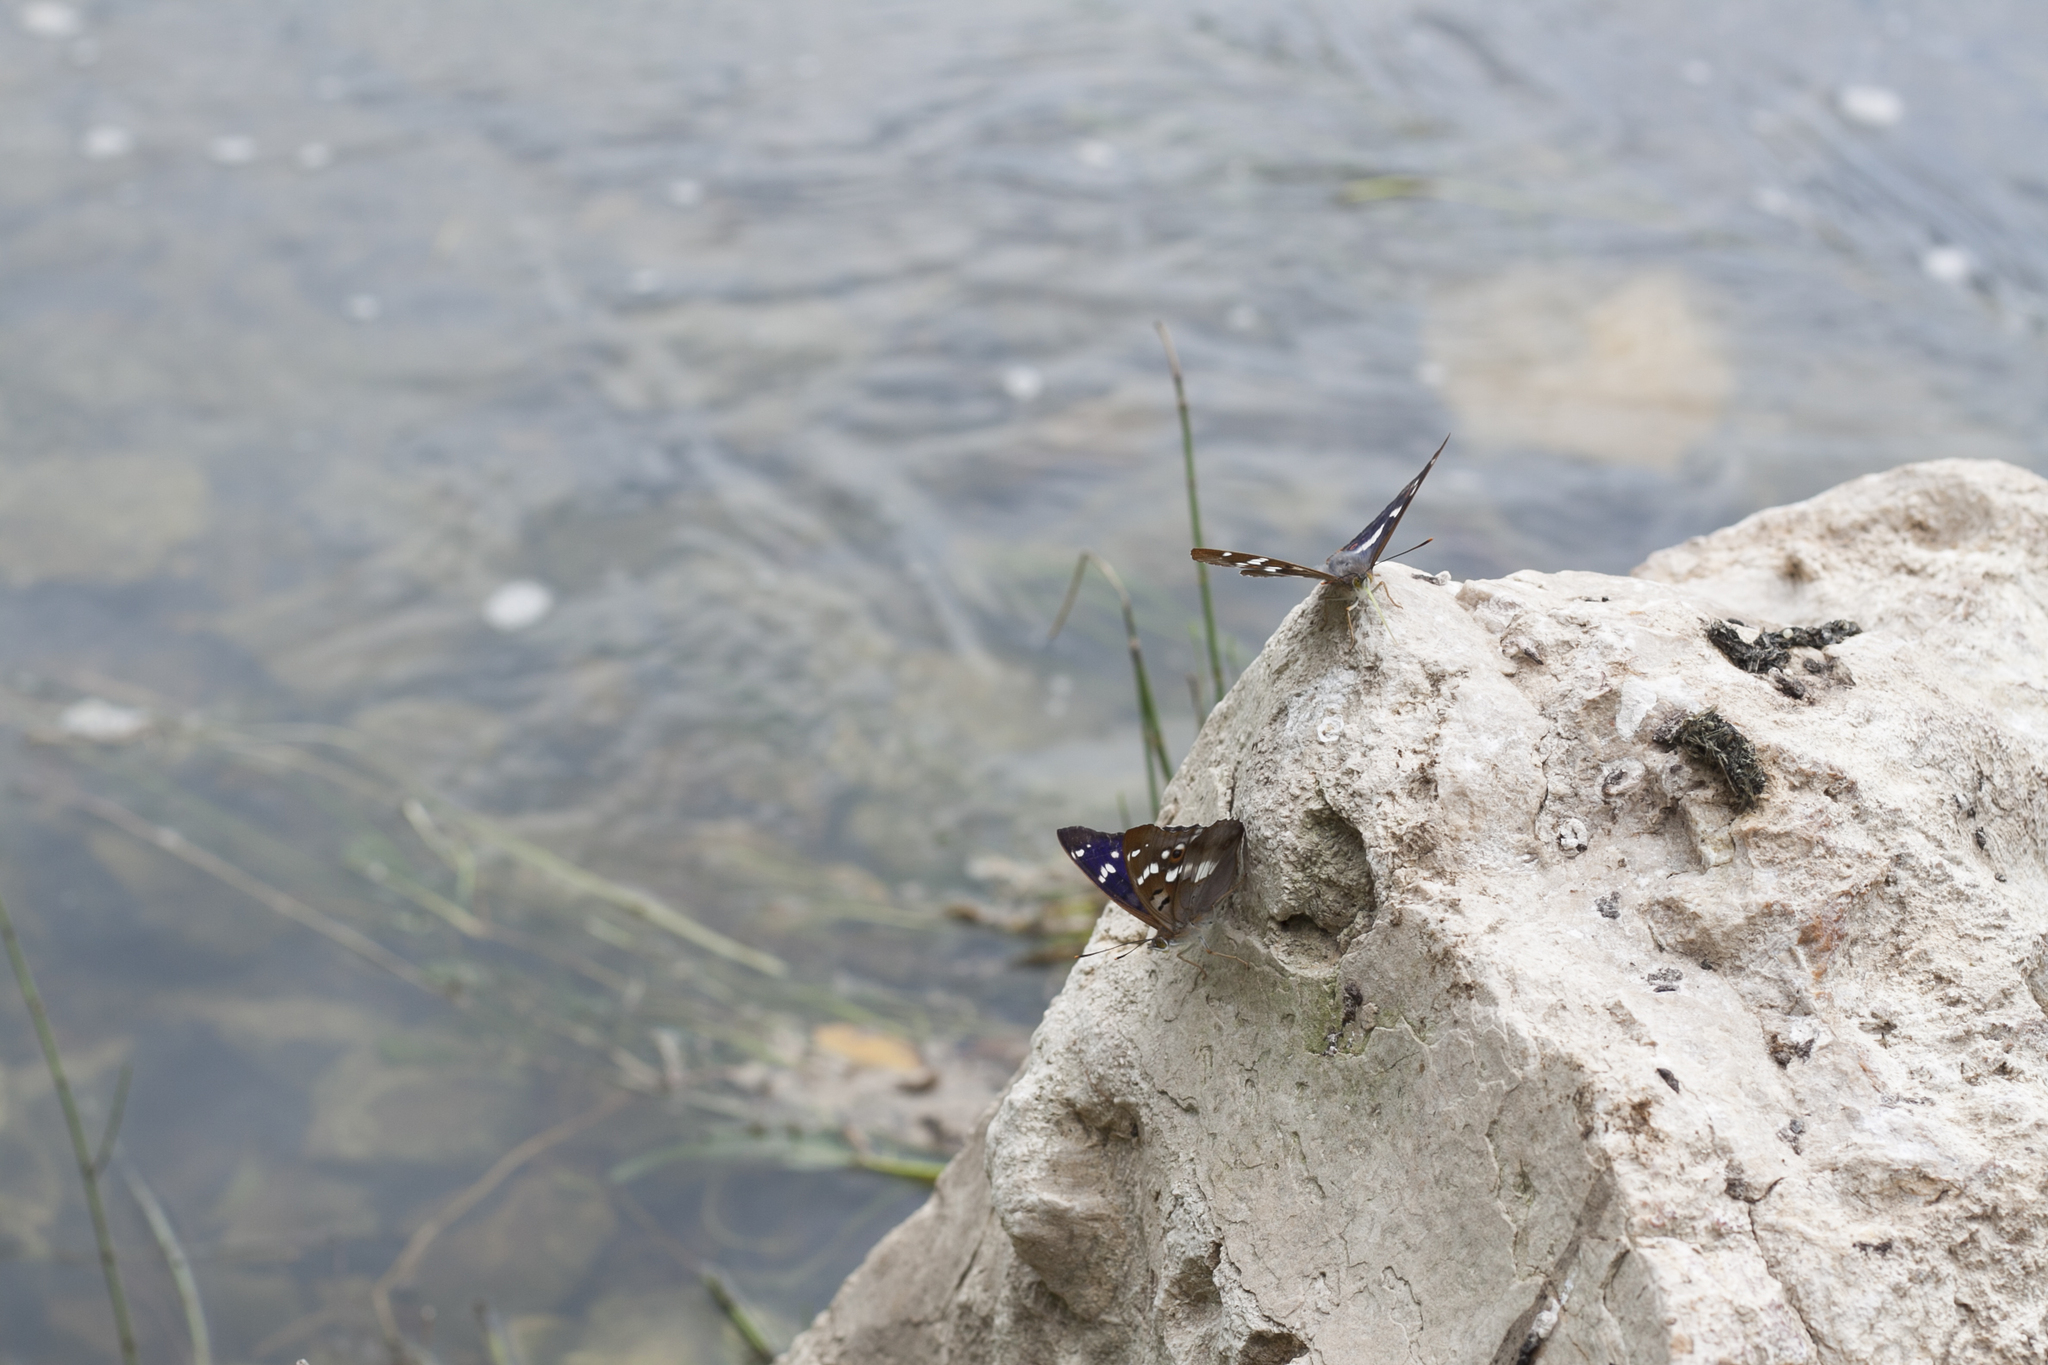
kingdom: Animalia
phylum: Arthropoda
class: Insecta
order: Lepidoptera
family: Nymphalidae
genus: Apatura
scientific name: Apatura ilia
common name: Lesser purple emperor
